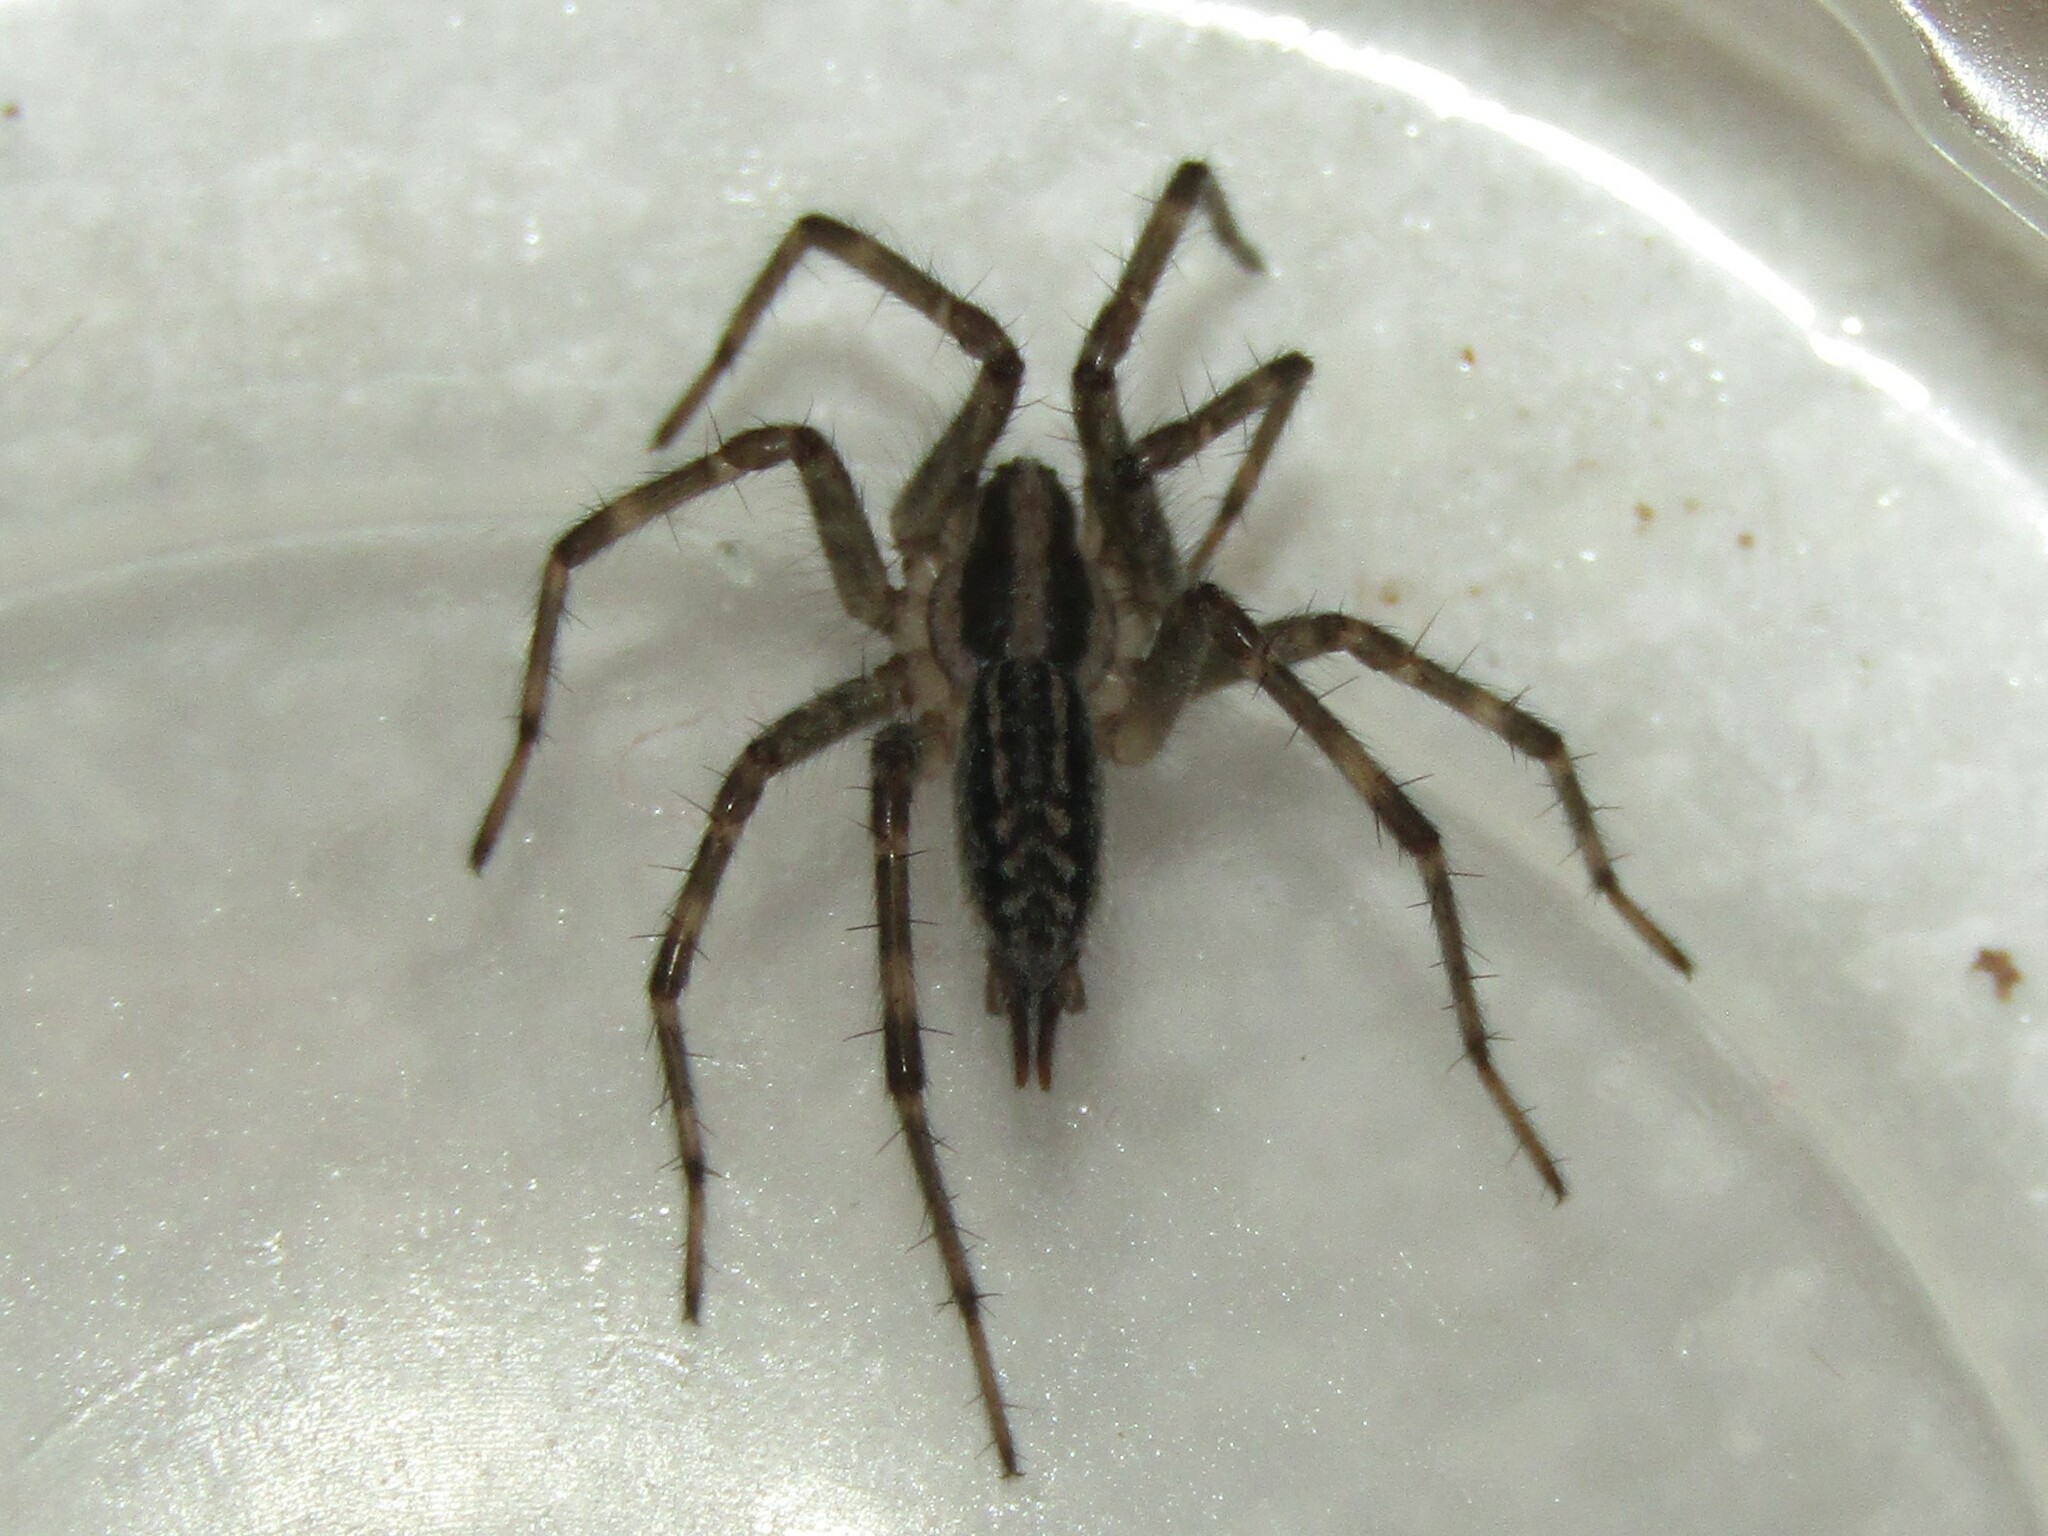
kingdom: Animalia
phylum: Arthropoda
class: Arachnida
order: Araneae
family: Agelenidae
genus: Agelenopsis
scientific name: Agelenopsis
